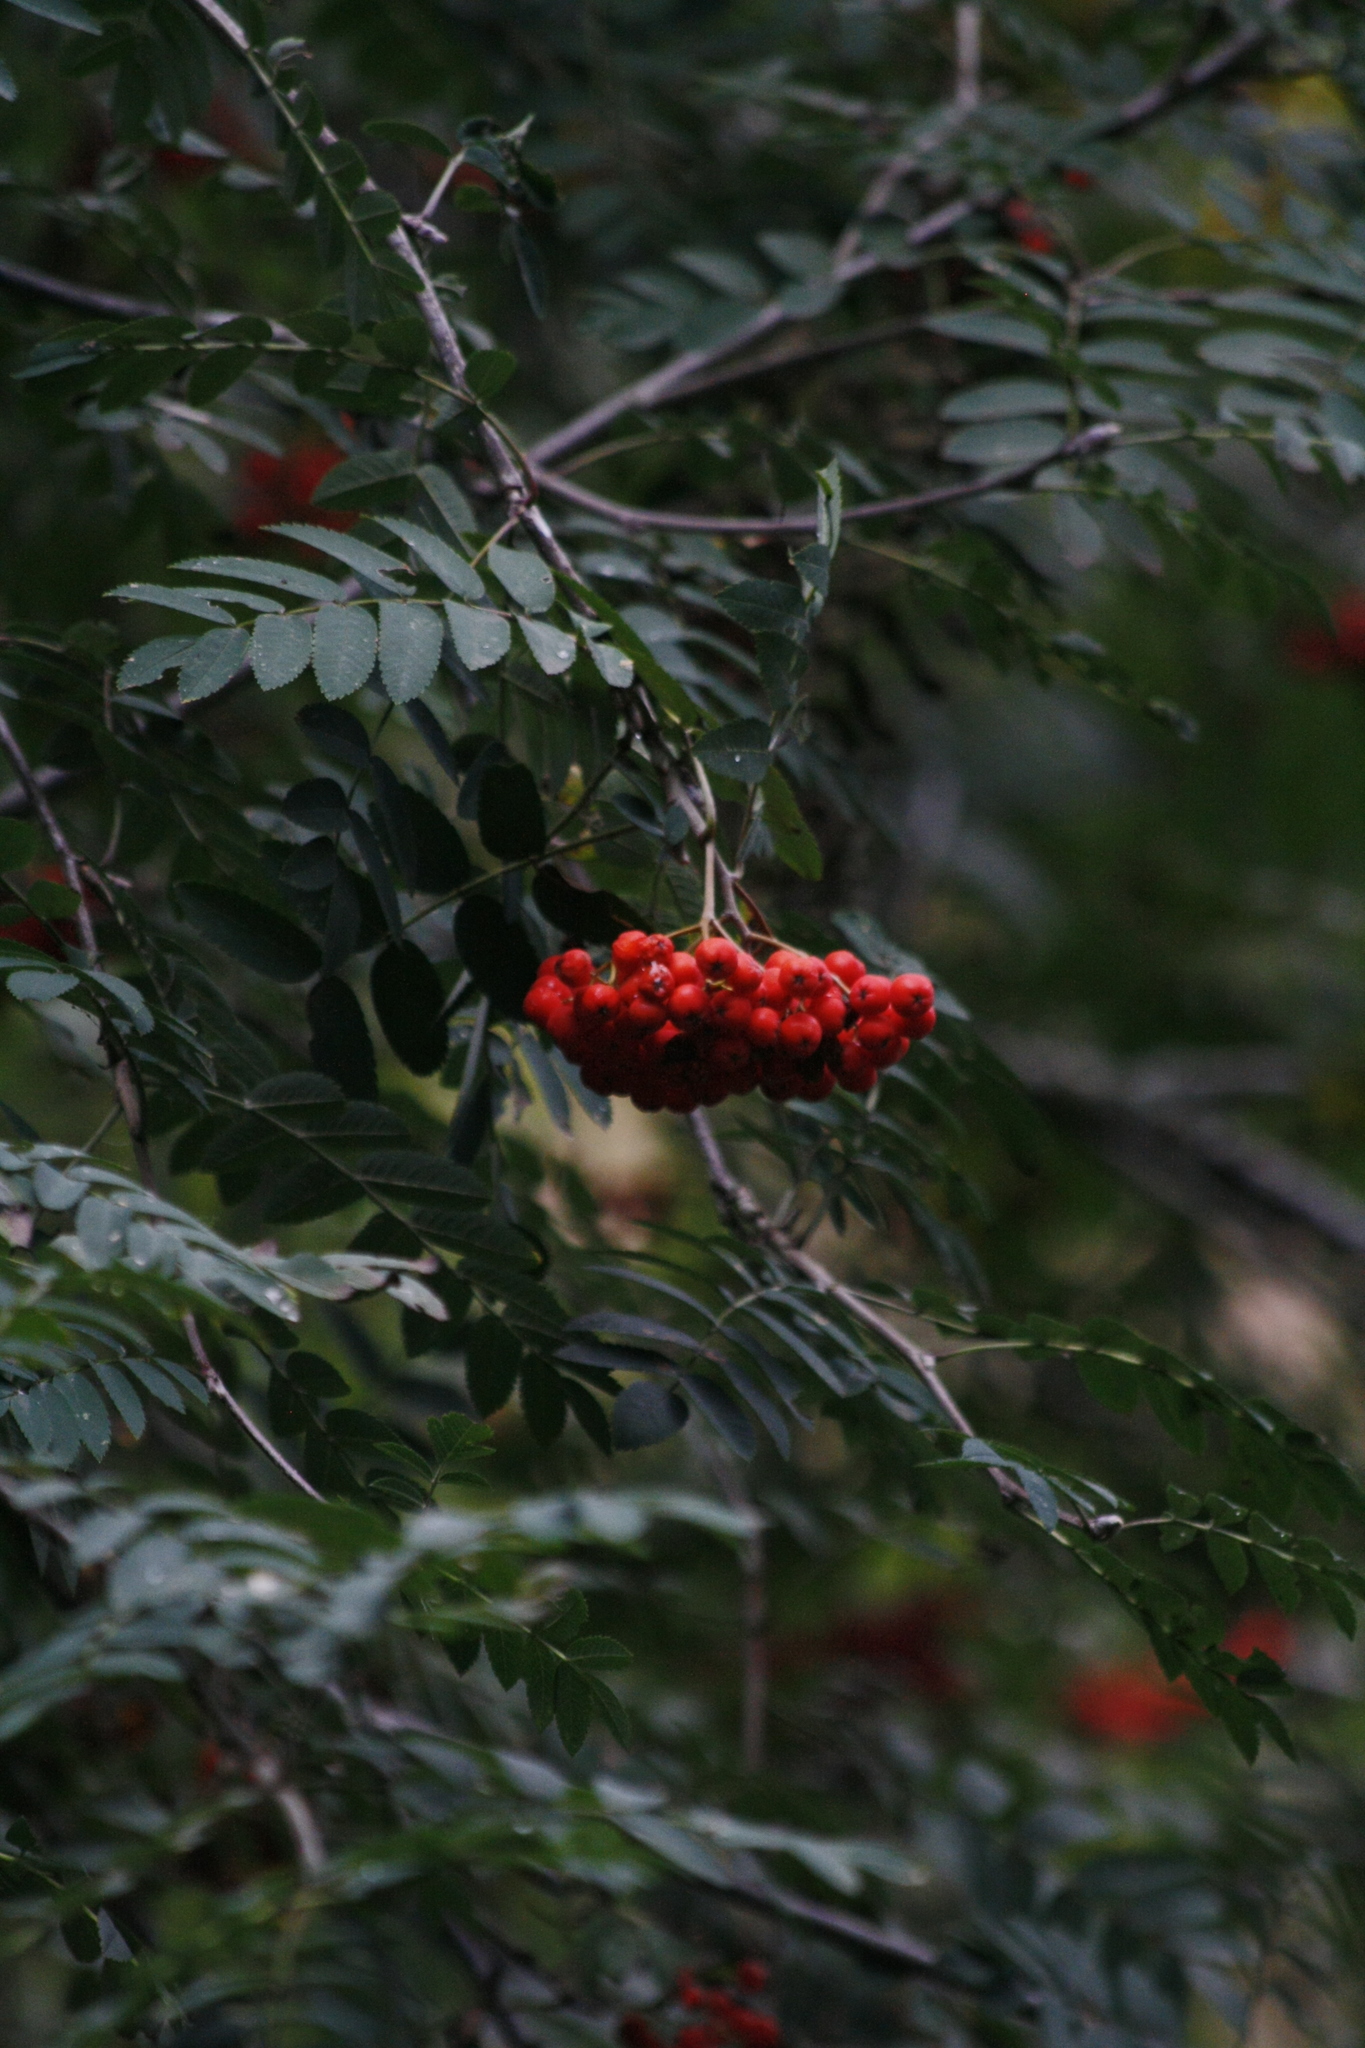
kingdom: Plantae
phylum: Tracheophyta
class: Magnoliopsida
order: Rosales
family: Rosaceae
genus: Sorbus
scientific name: Sorbus aucuparia
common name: Rowan
